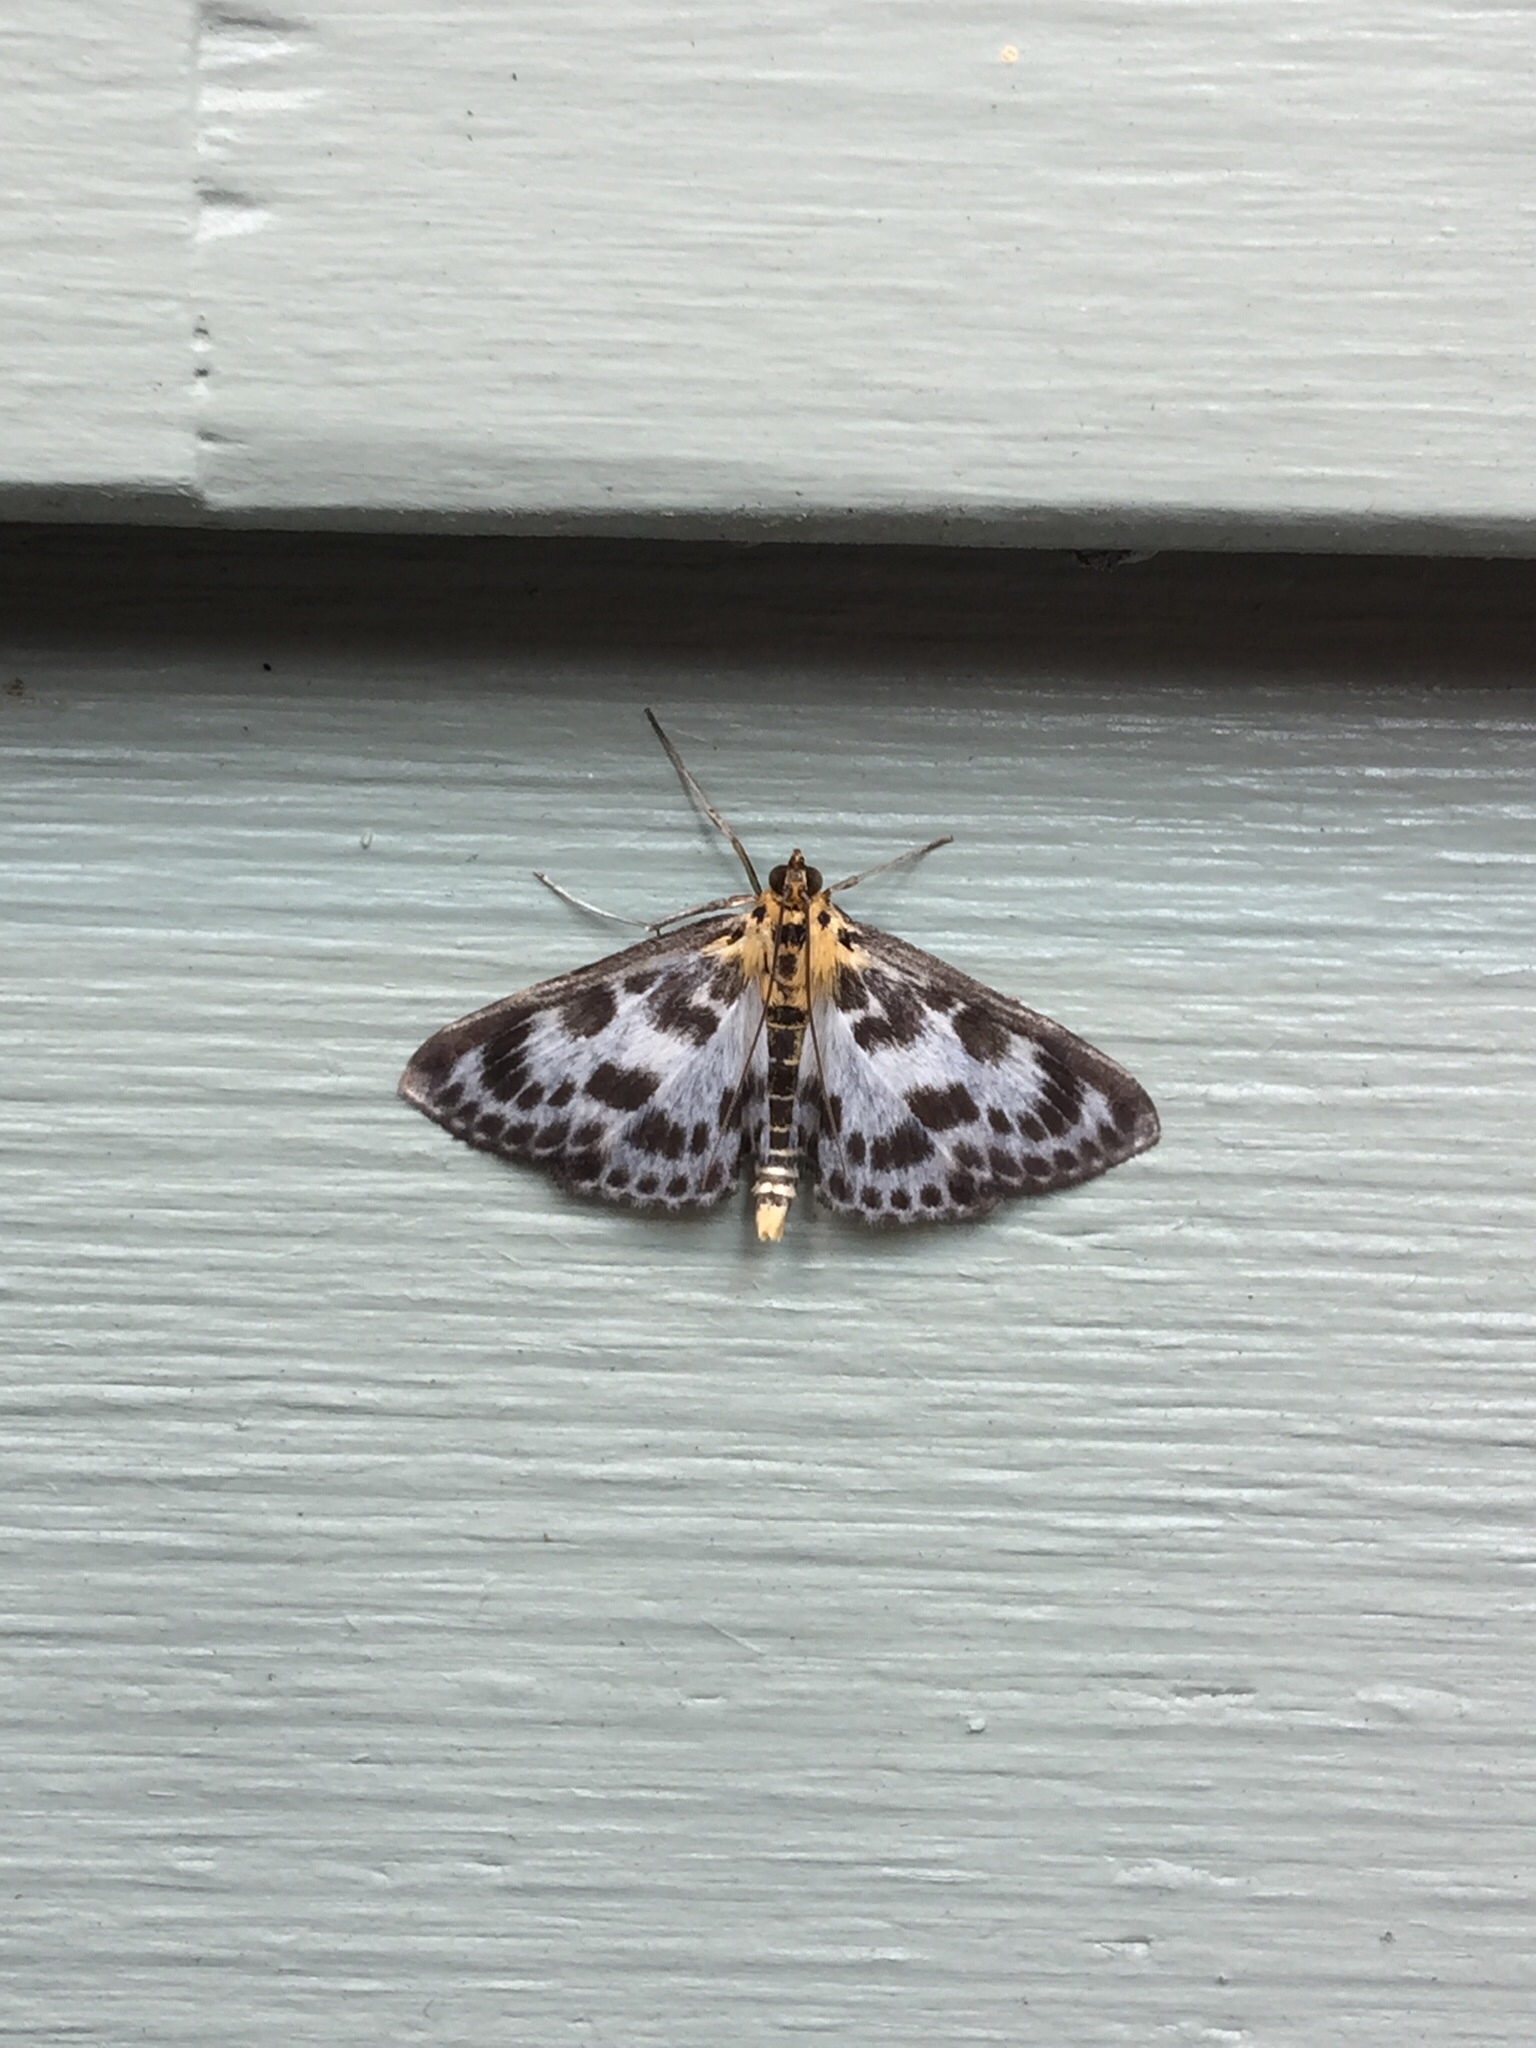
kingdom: Animalia
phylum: Arthropoda
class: Insecta
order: Lepidoptera
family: Crambidae
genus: Anania
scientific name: Anania hortulata
